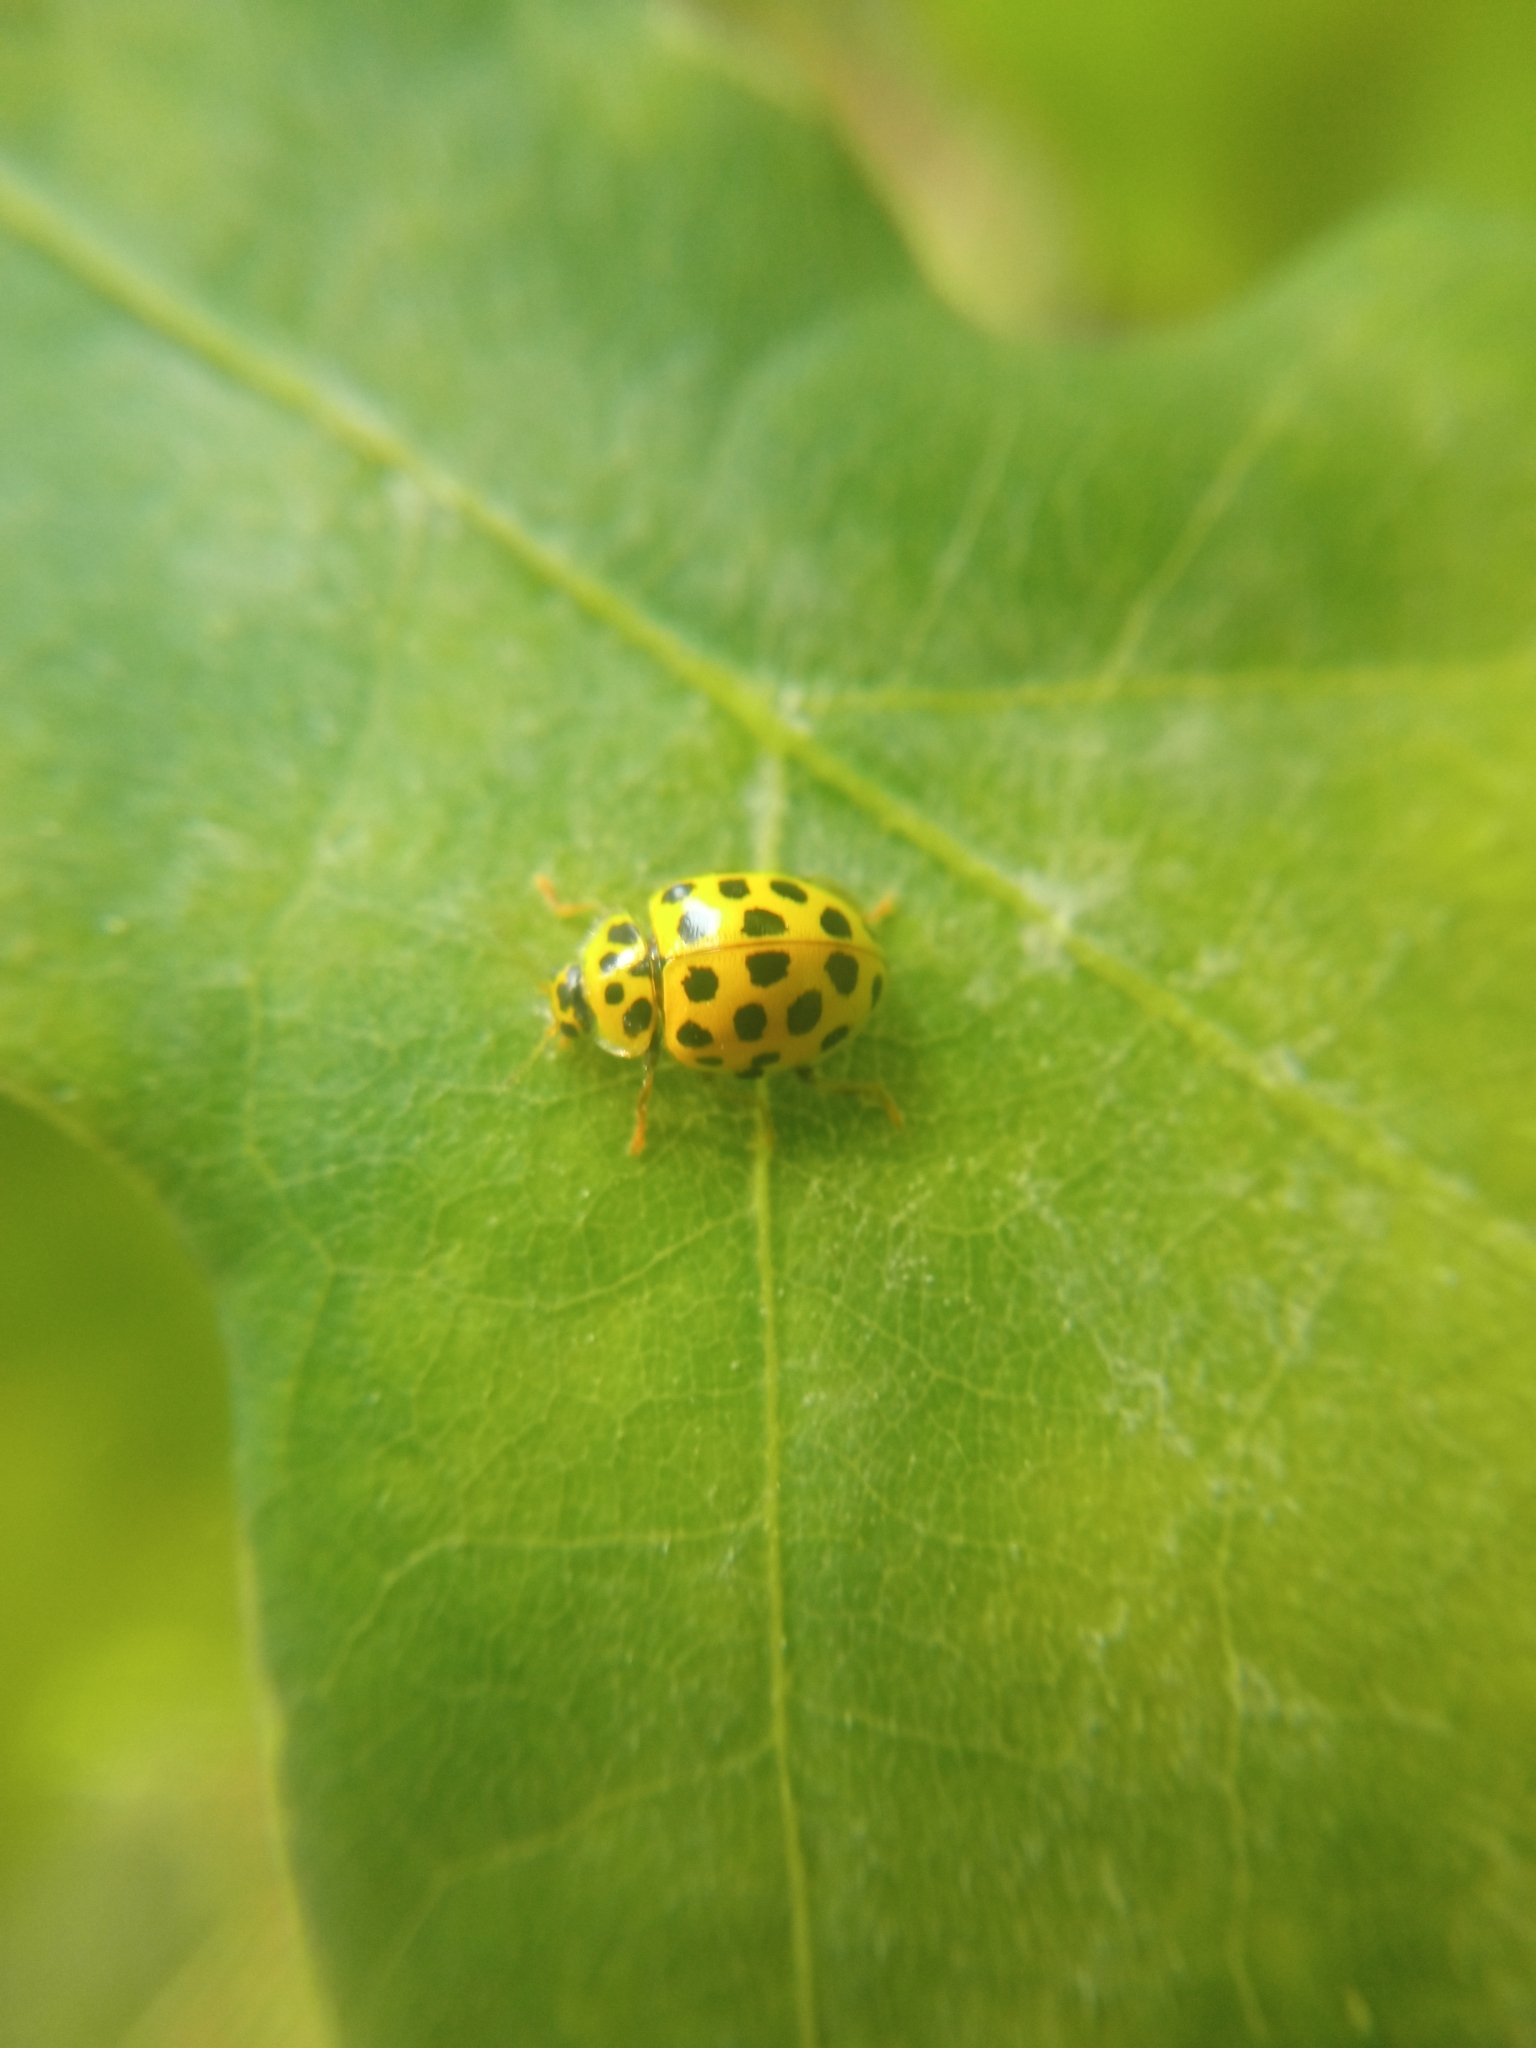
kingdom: Animalia
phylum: Arthropoda
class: Insecta
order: Coleoptera
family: Coccinellidae
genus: Psyllobora
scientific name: Psyllobora vigintiduopunctata
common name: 22-spot ladybird
